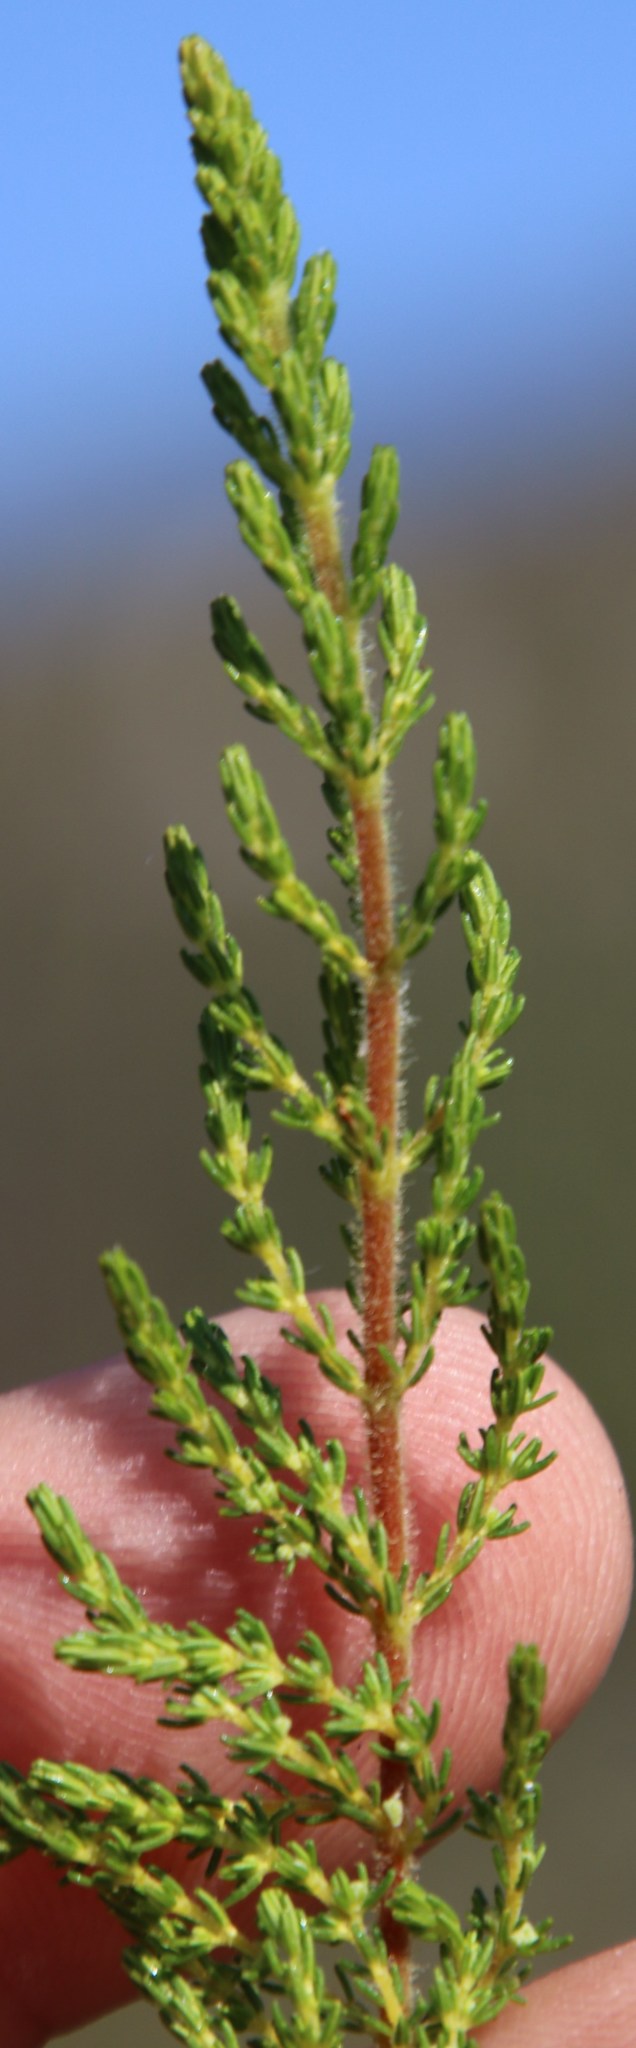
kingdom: Plantae
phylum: Tracheophyta
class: Magnoliopsida
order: Ericales
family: Ericaceae
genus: Erica
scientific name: Erica muscosa
